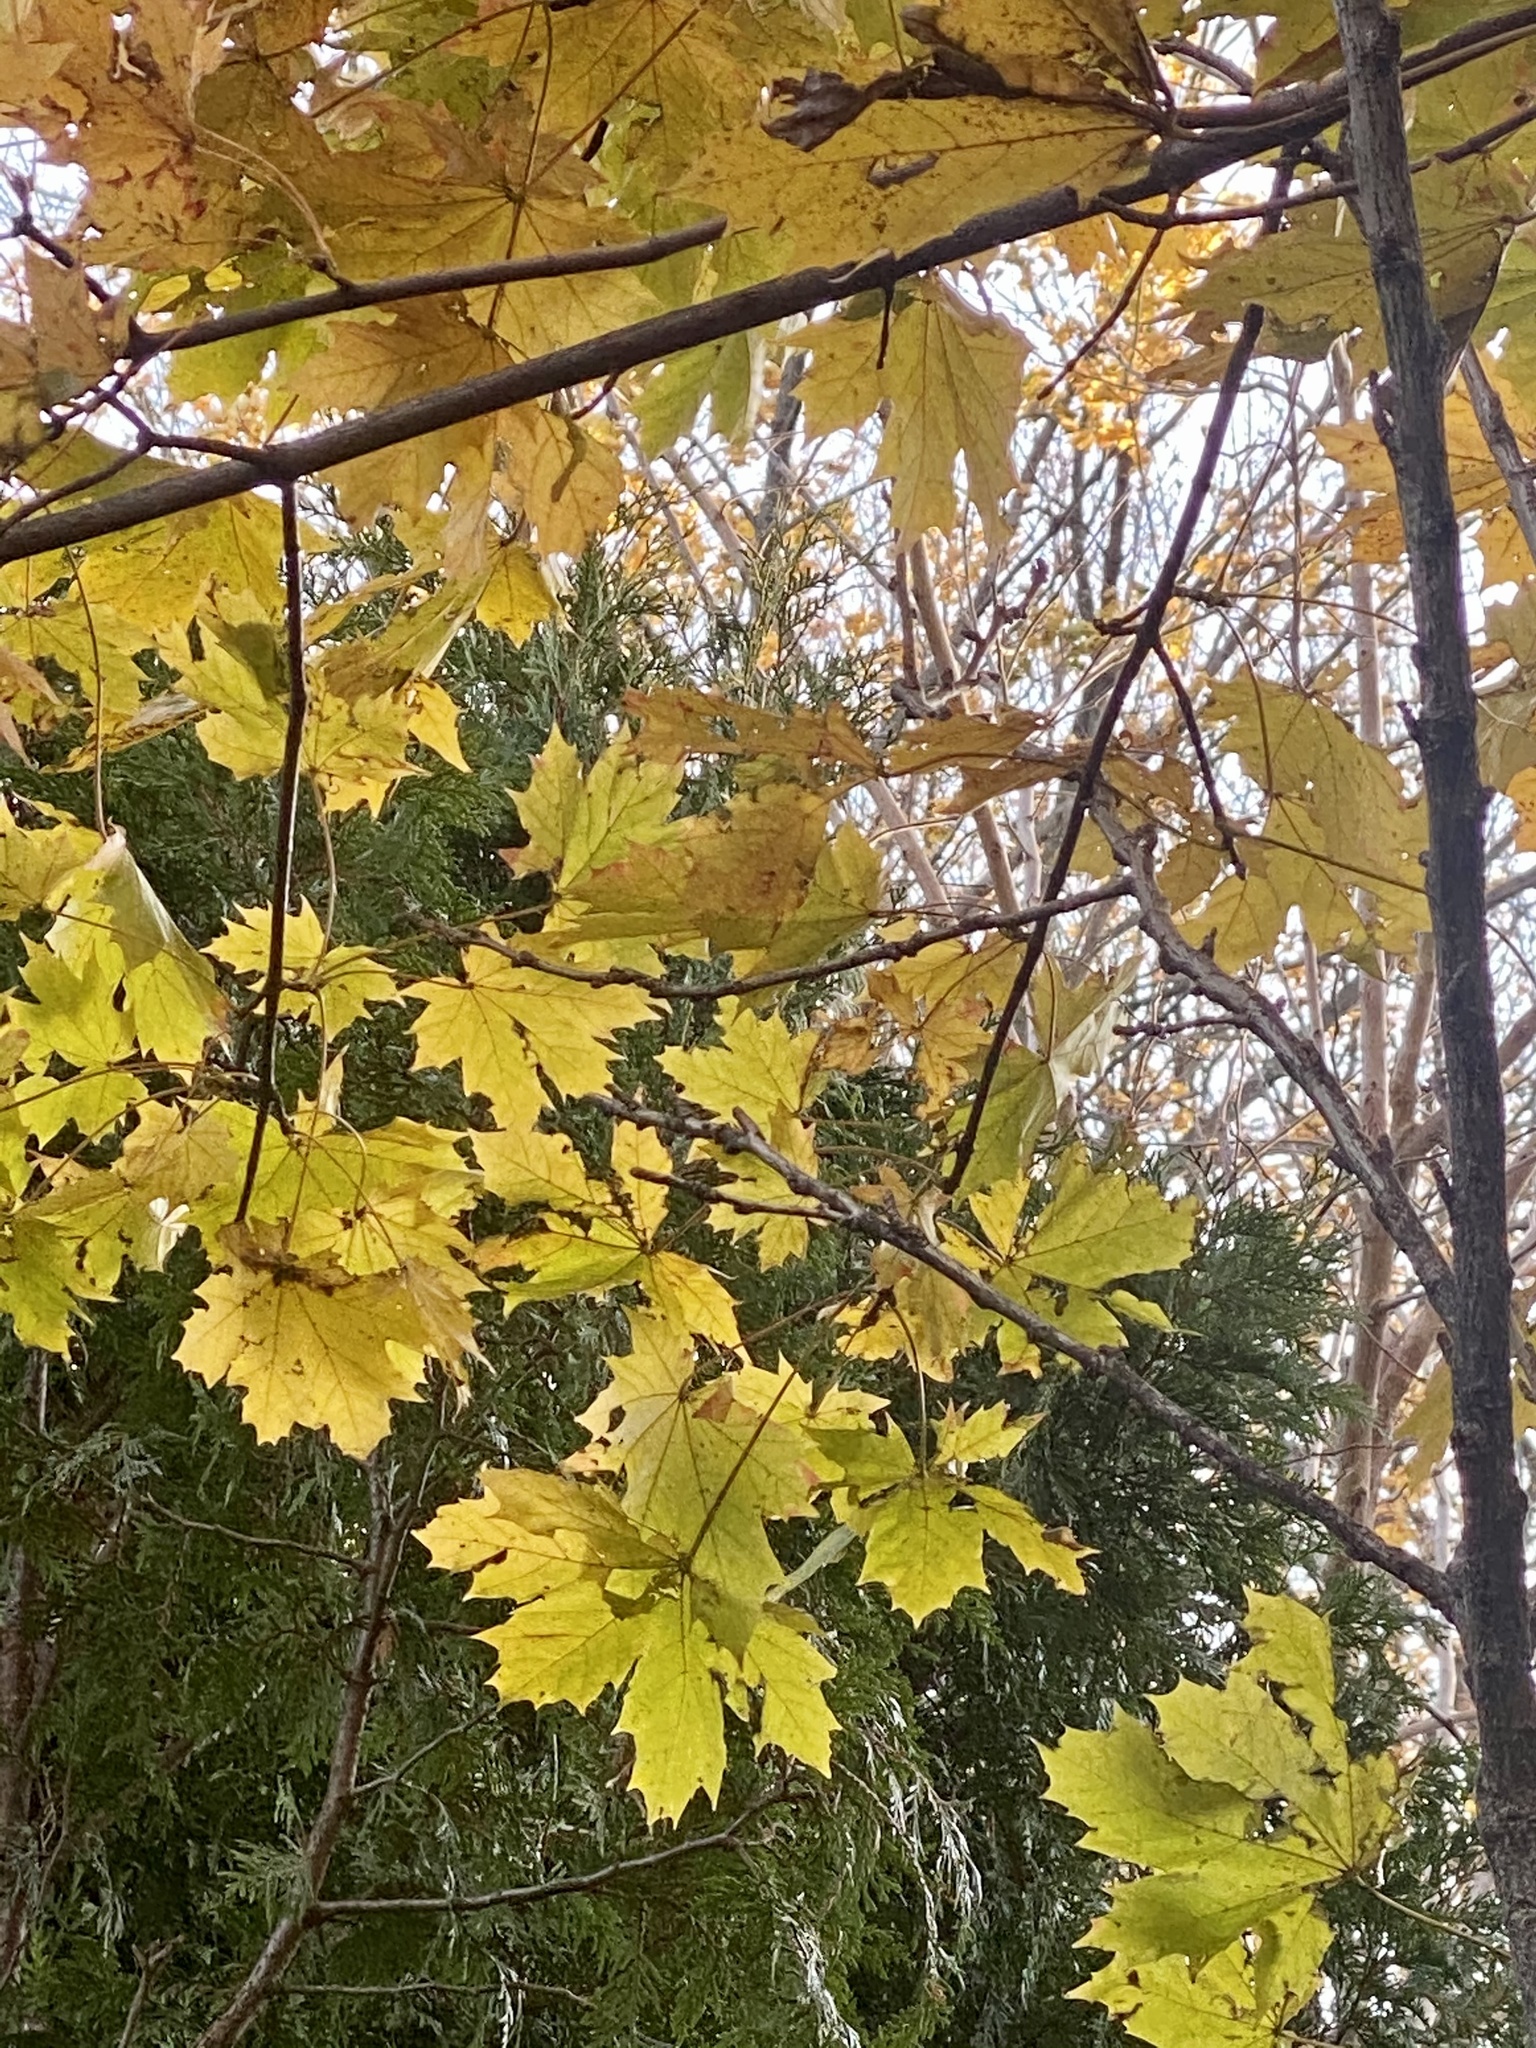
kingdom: Plantae
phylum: Tracheophyta
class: Magnoliopsida
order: Sapindales
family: Sapindaceae
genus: Acer
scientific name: Acer platanoides
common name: Norway maple
